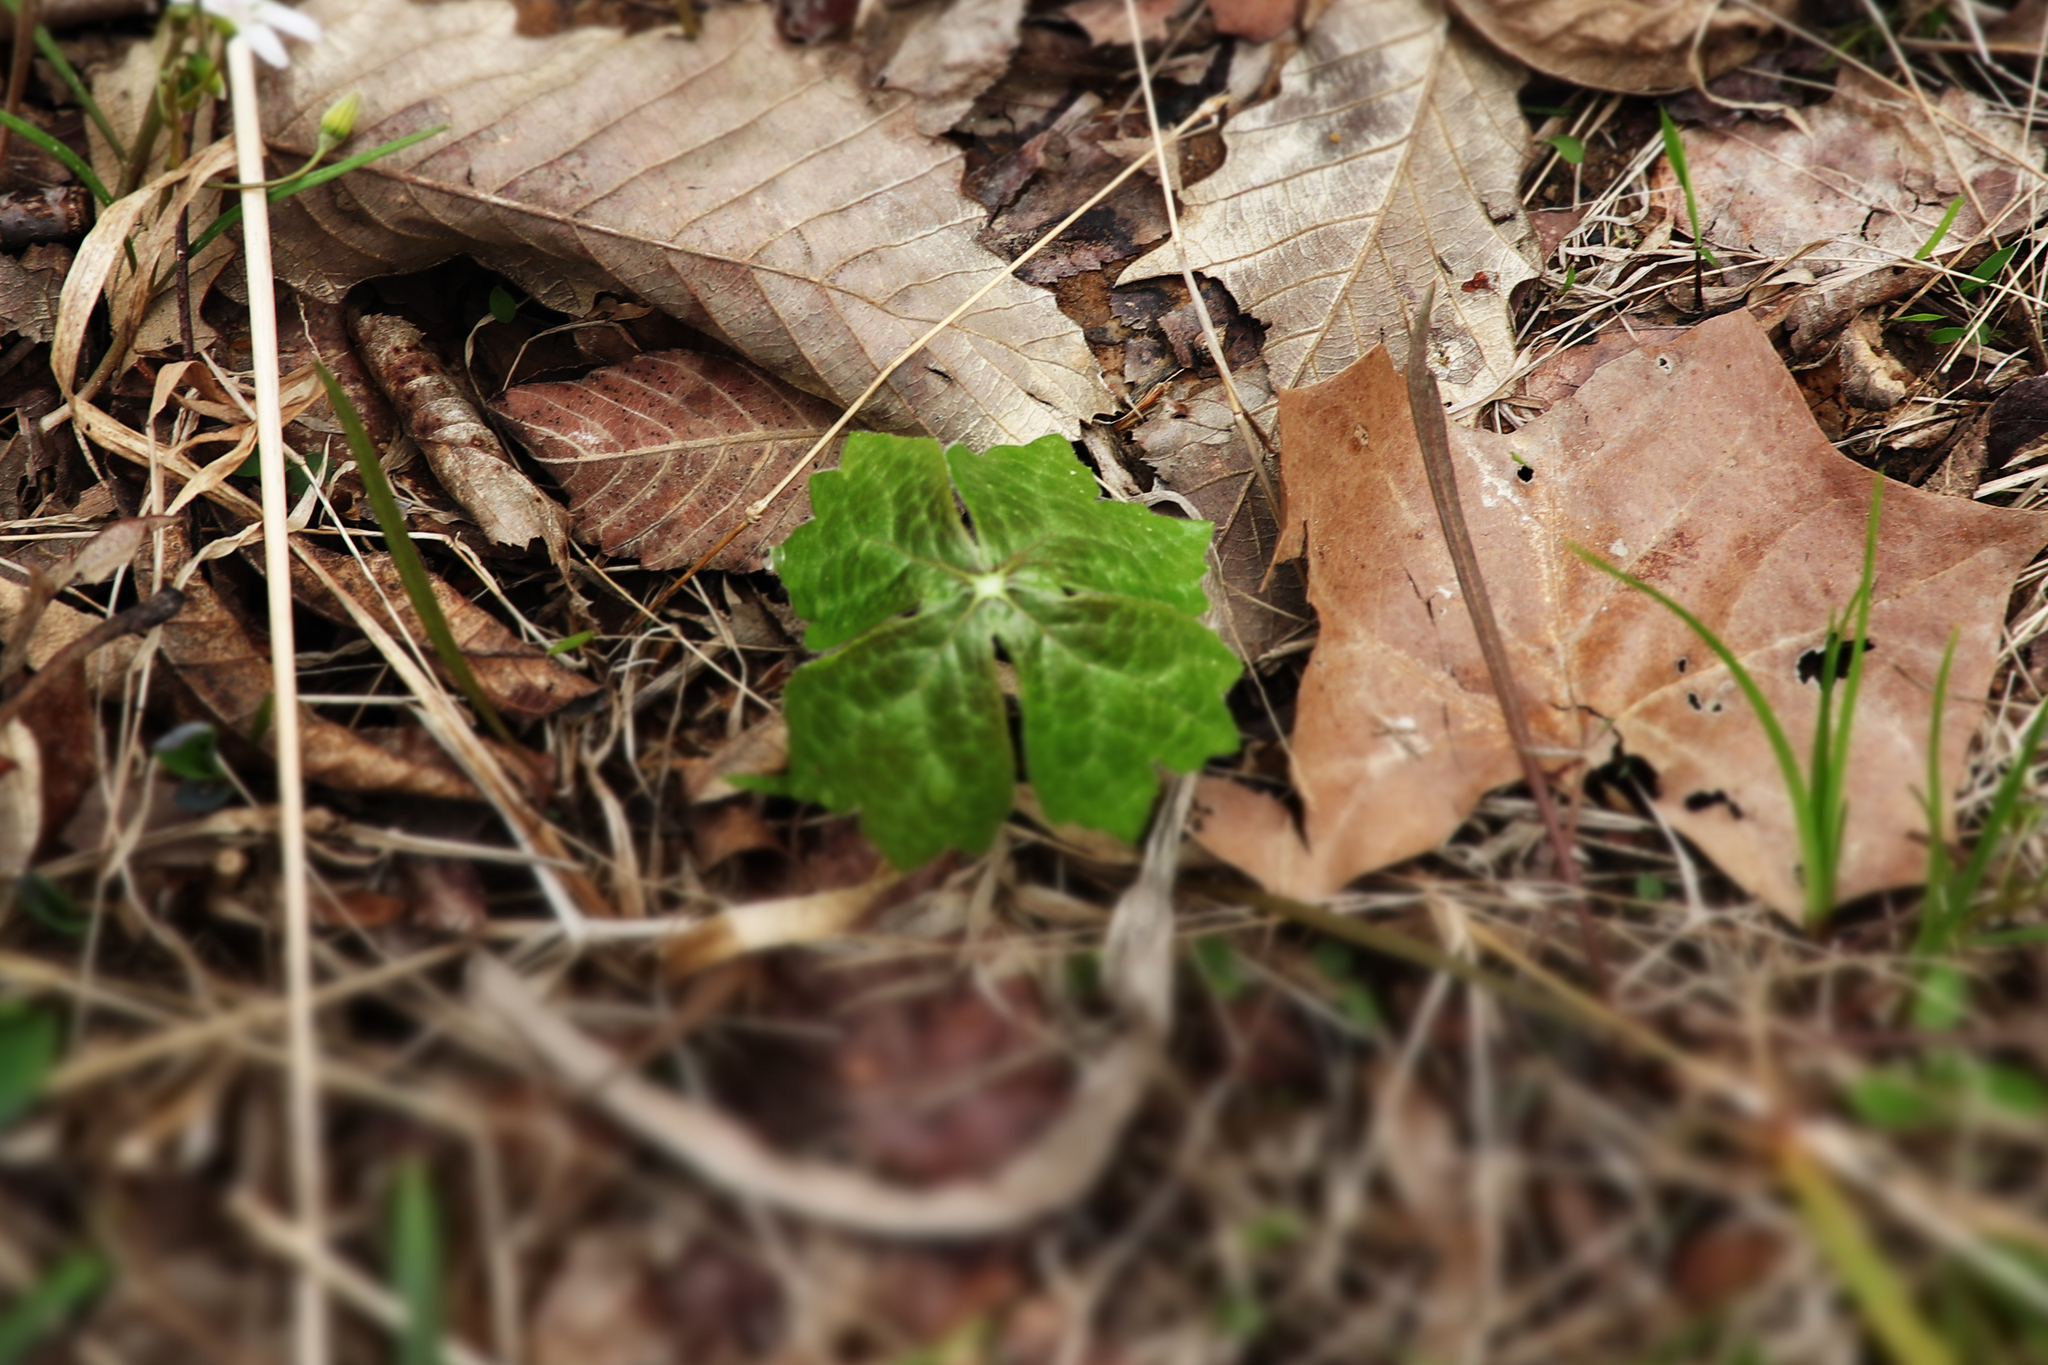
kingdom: Plantae
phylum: Tracheophyta
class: Magnoliopsida
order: Ranunculales
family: Berberidaceae
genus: Podophyllum
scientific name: Podophyllum peltatum
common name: Wild mandrake
